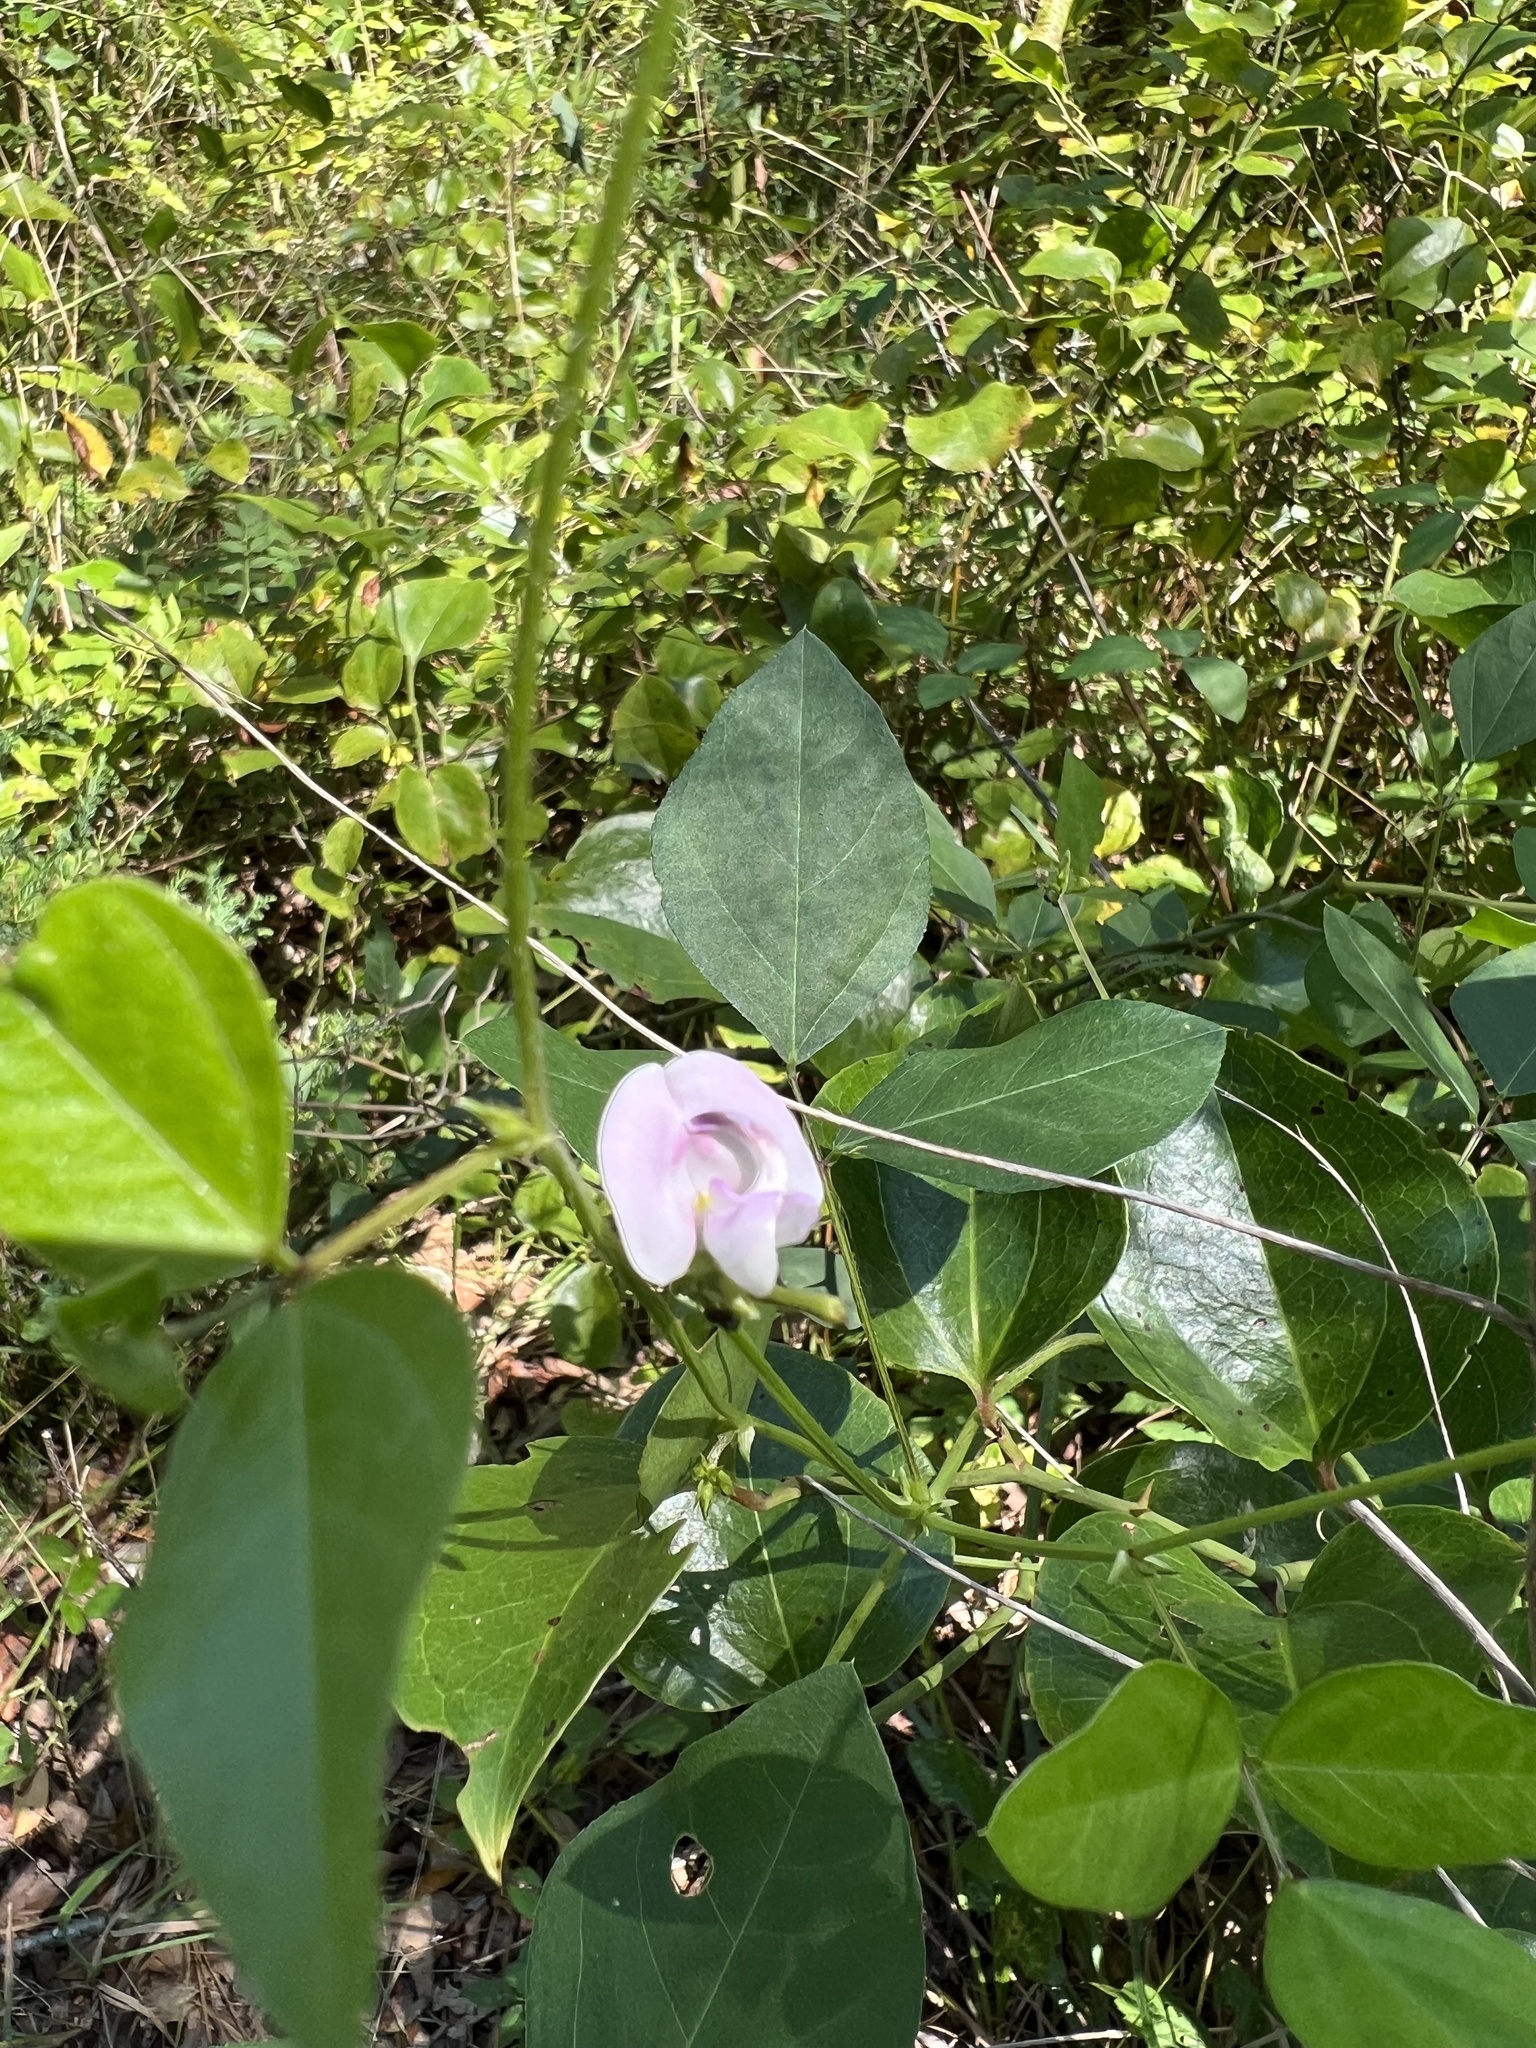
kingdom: Plantae
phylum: Tracheophyta
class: Magnoliopsida
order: Fabales
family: Fabaceae
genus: Strophostyles
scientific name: Strophostyles helvola
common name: Trailing wild bean
